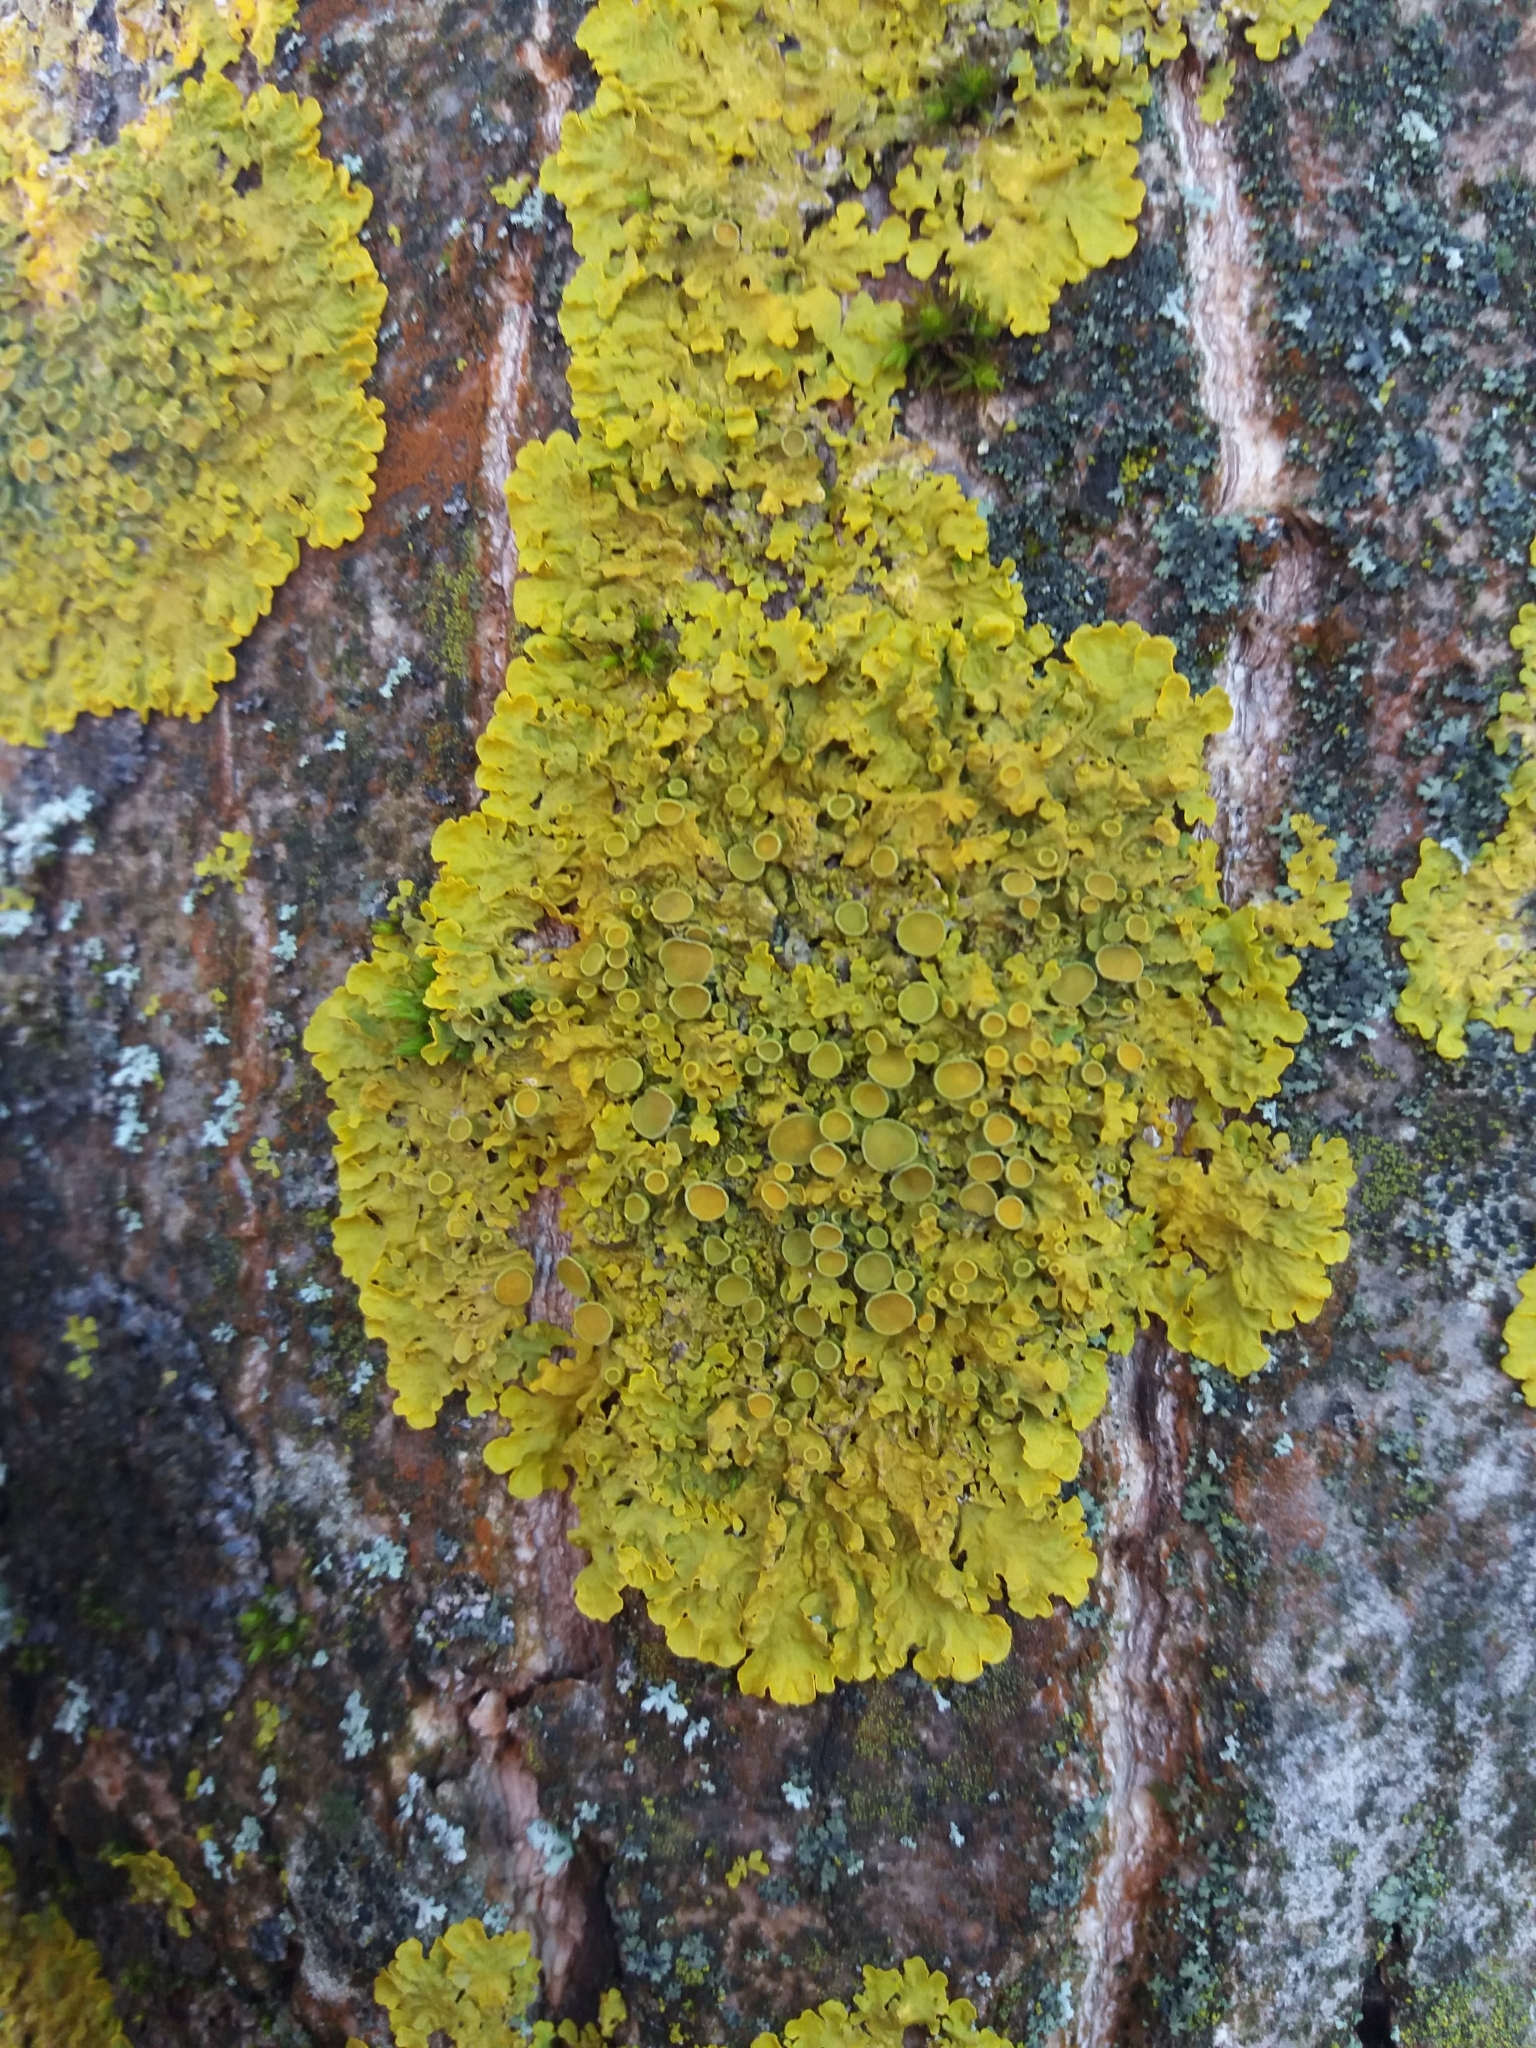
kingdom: Fungi
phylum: Ascomycota
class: Lecanoromycetes
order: Teloschistales
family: Teloschistaceae
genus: Xanthoria
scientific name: Xanthoria parietina
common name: Common orange lichen
